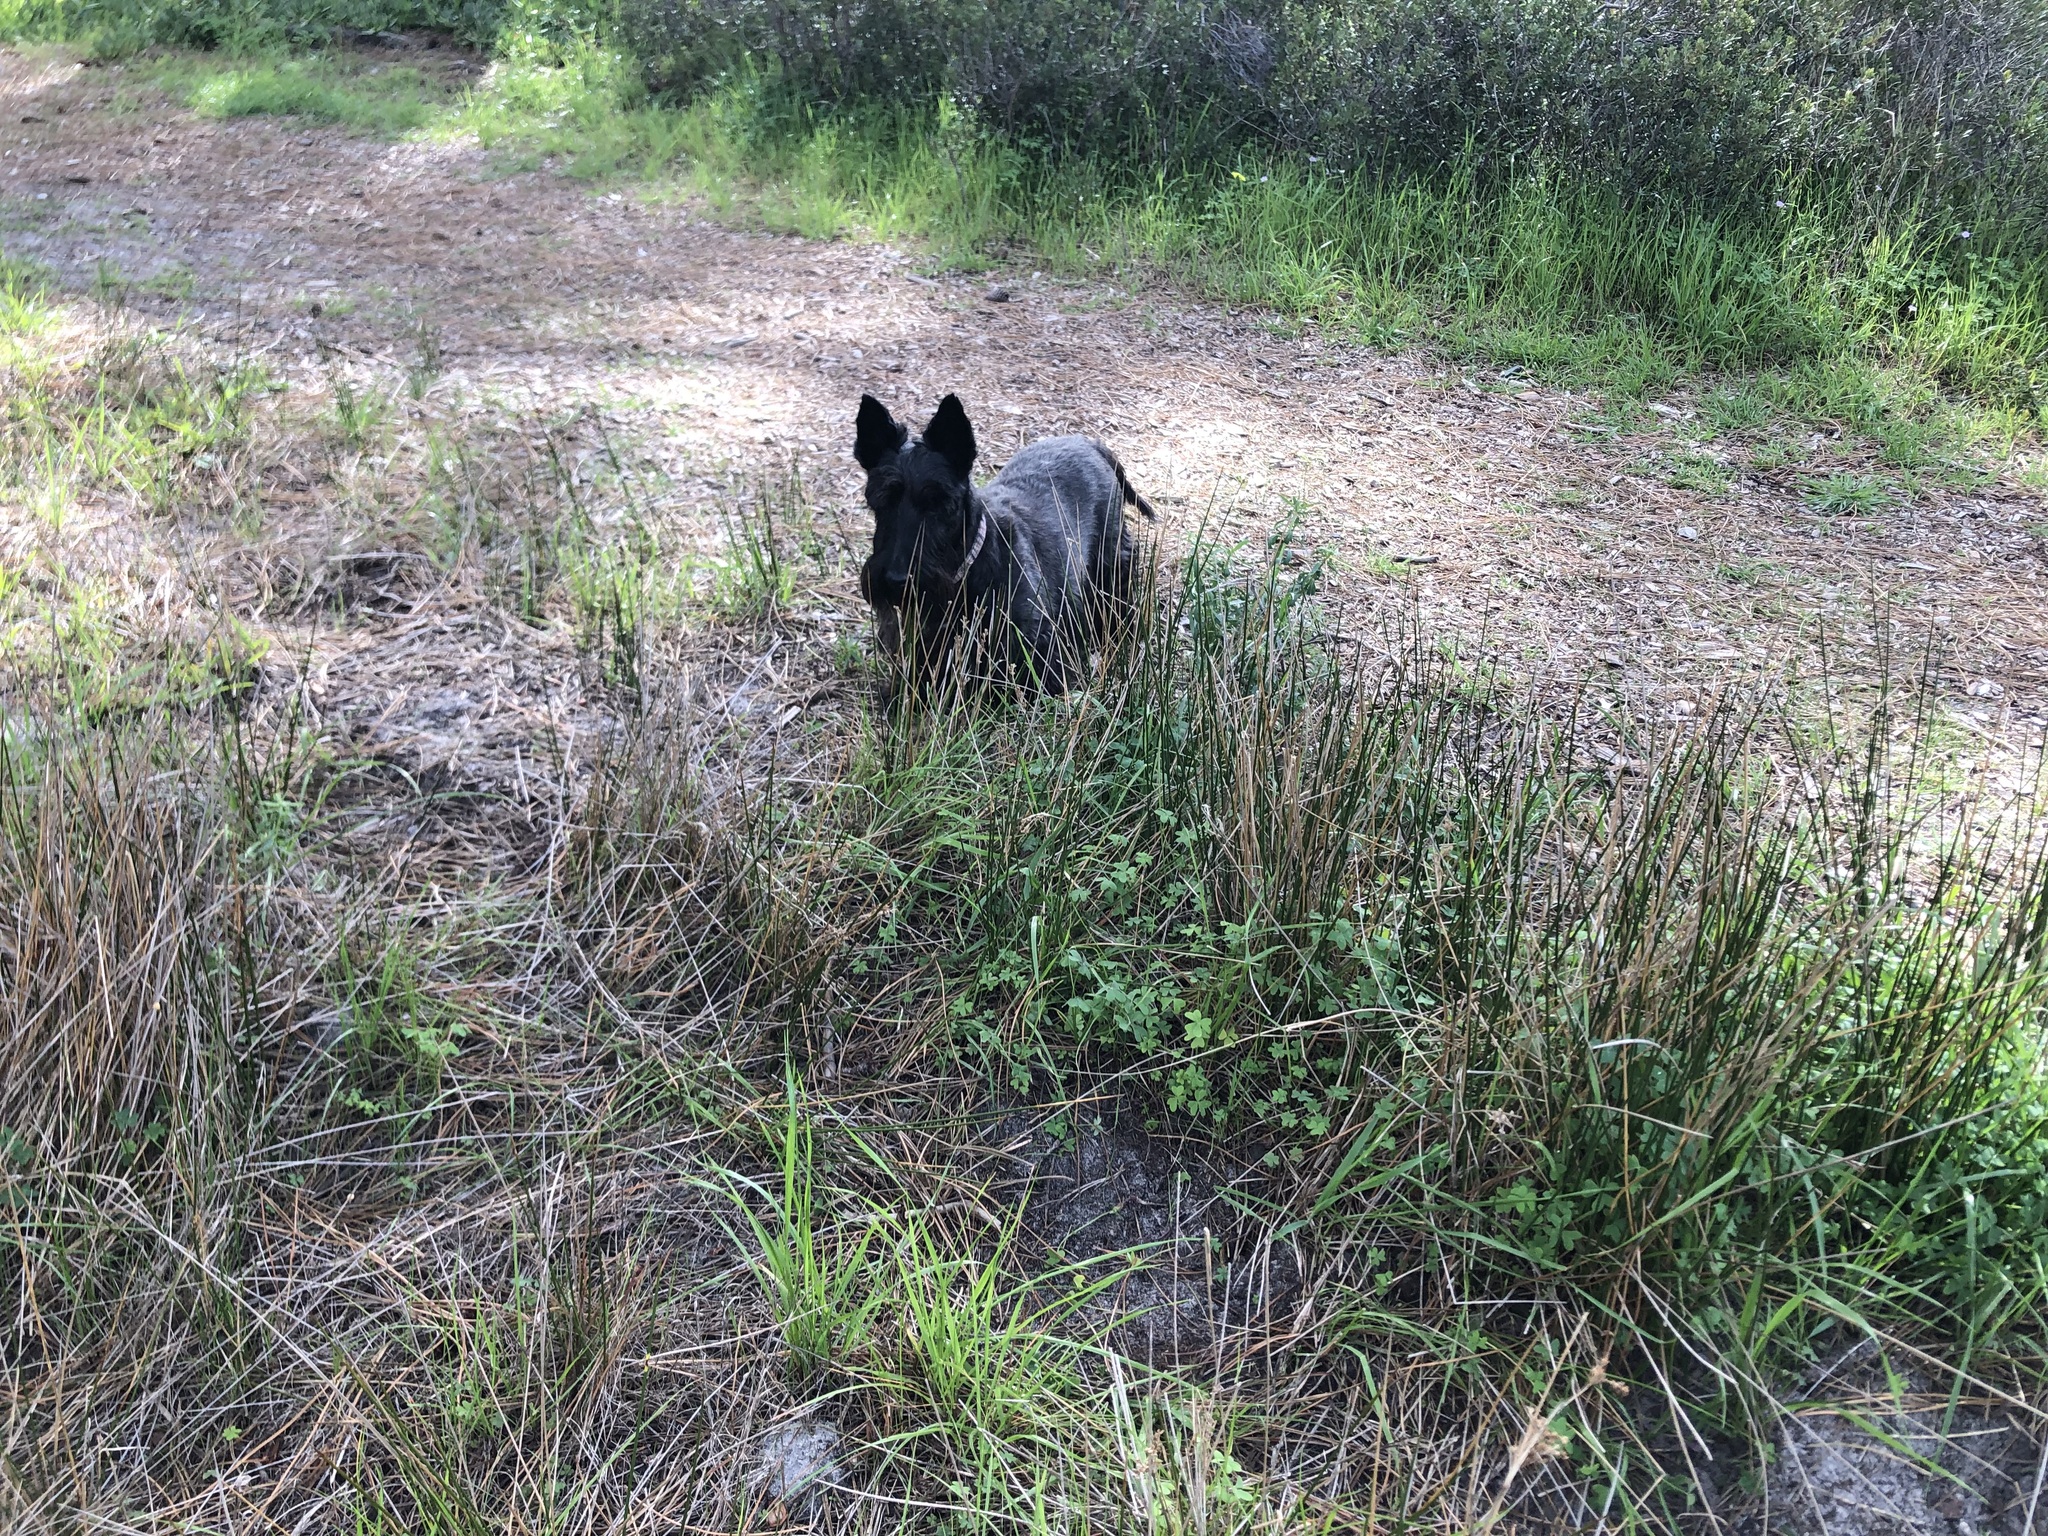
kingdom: Plantae
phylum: Tracheophyta
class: Liliopsida
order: Poales
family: Juncaceae
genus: Juncus
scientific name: Juncus kraussii
